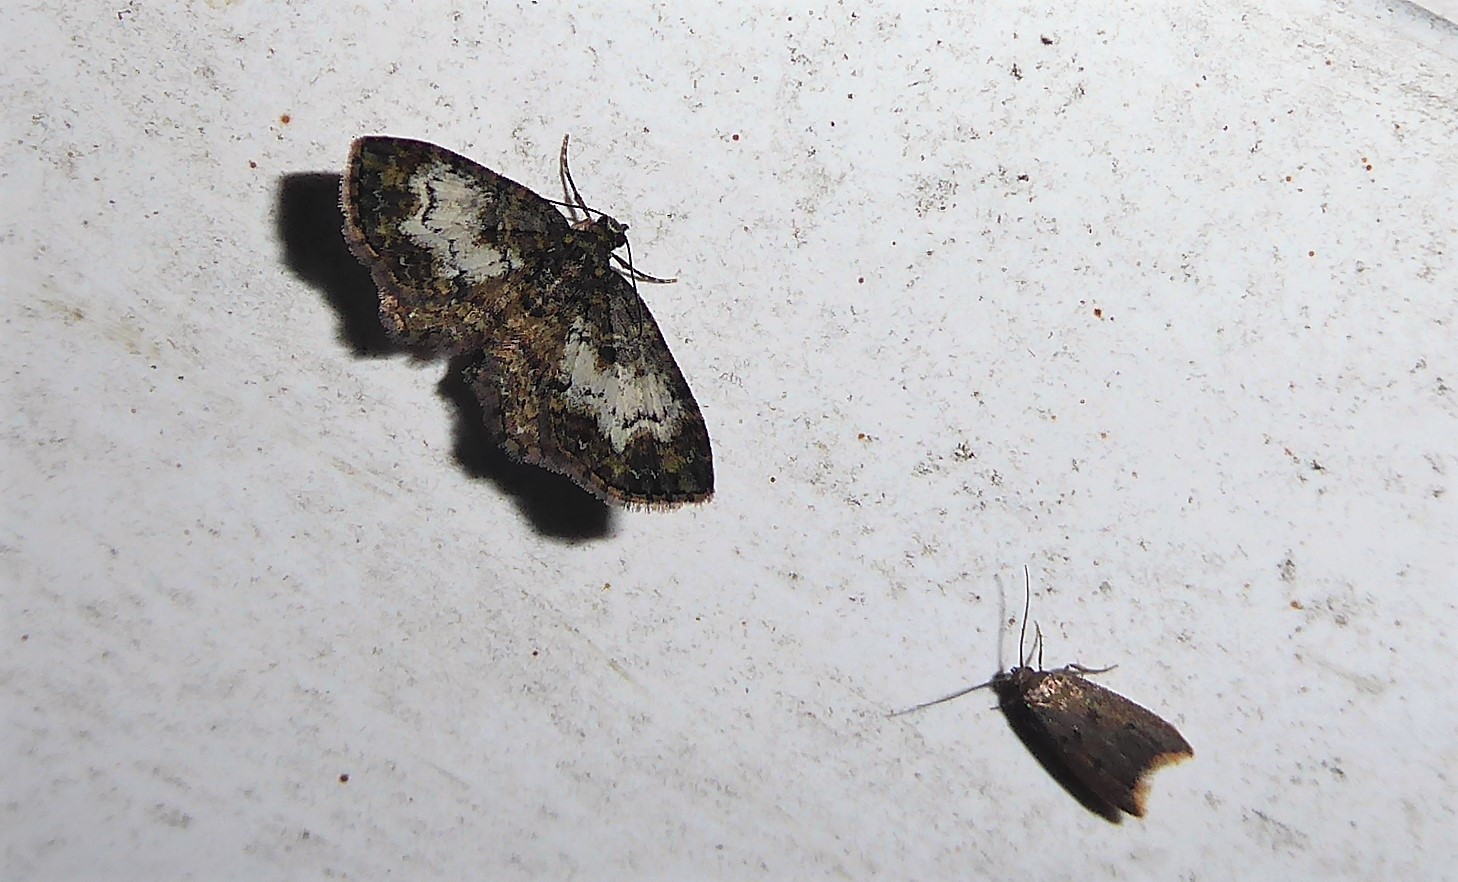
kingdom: Animalia
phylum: Arthropoda
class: Insecta
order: Lepidoptera
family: Geometridae
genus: Pasiphilodes
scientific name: Pasiphilodes testulata
